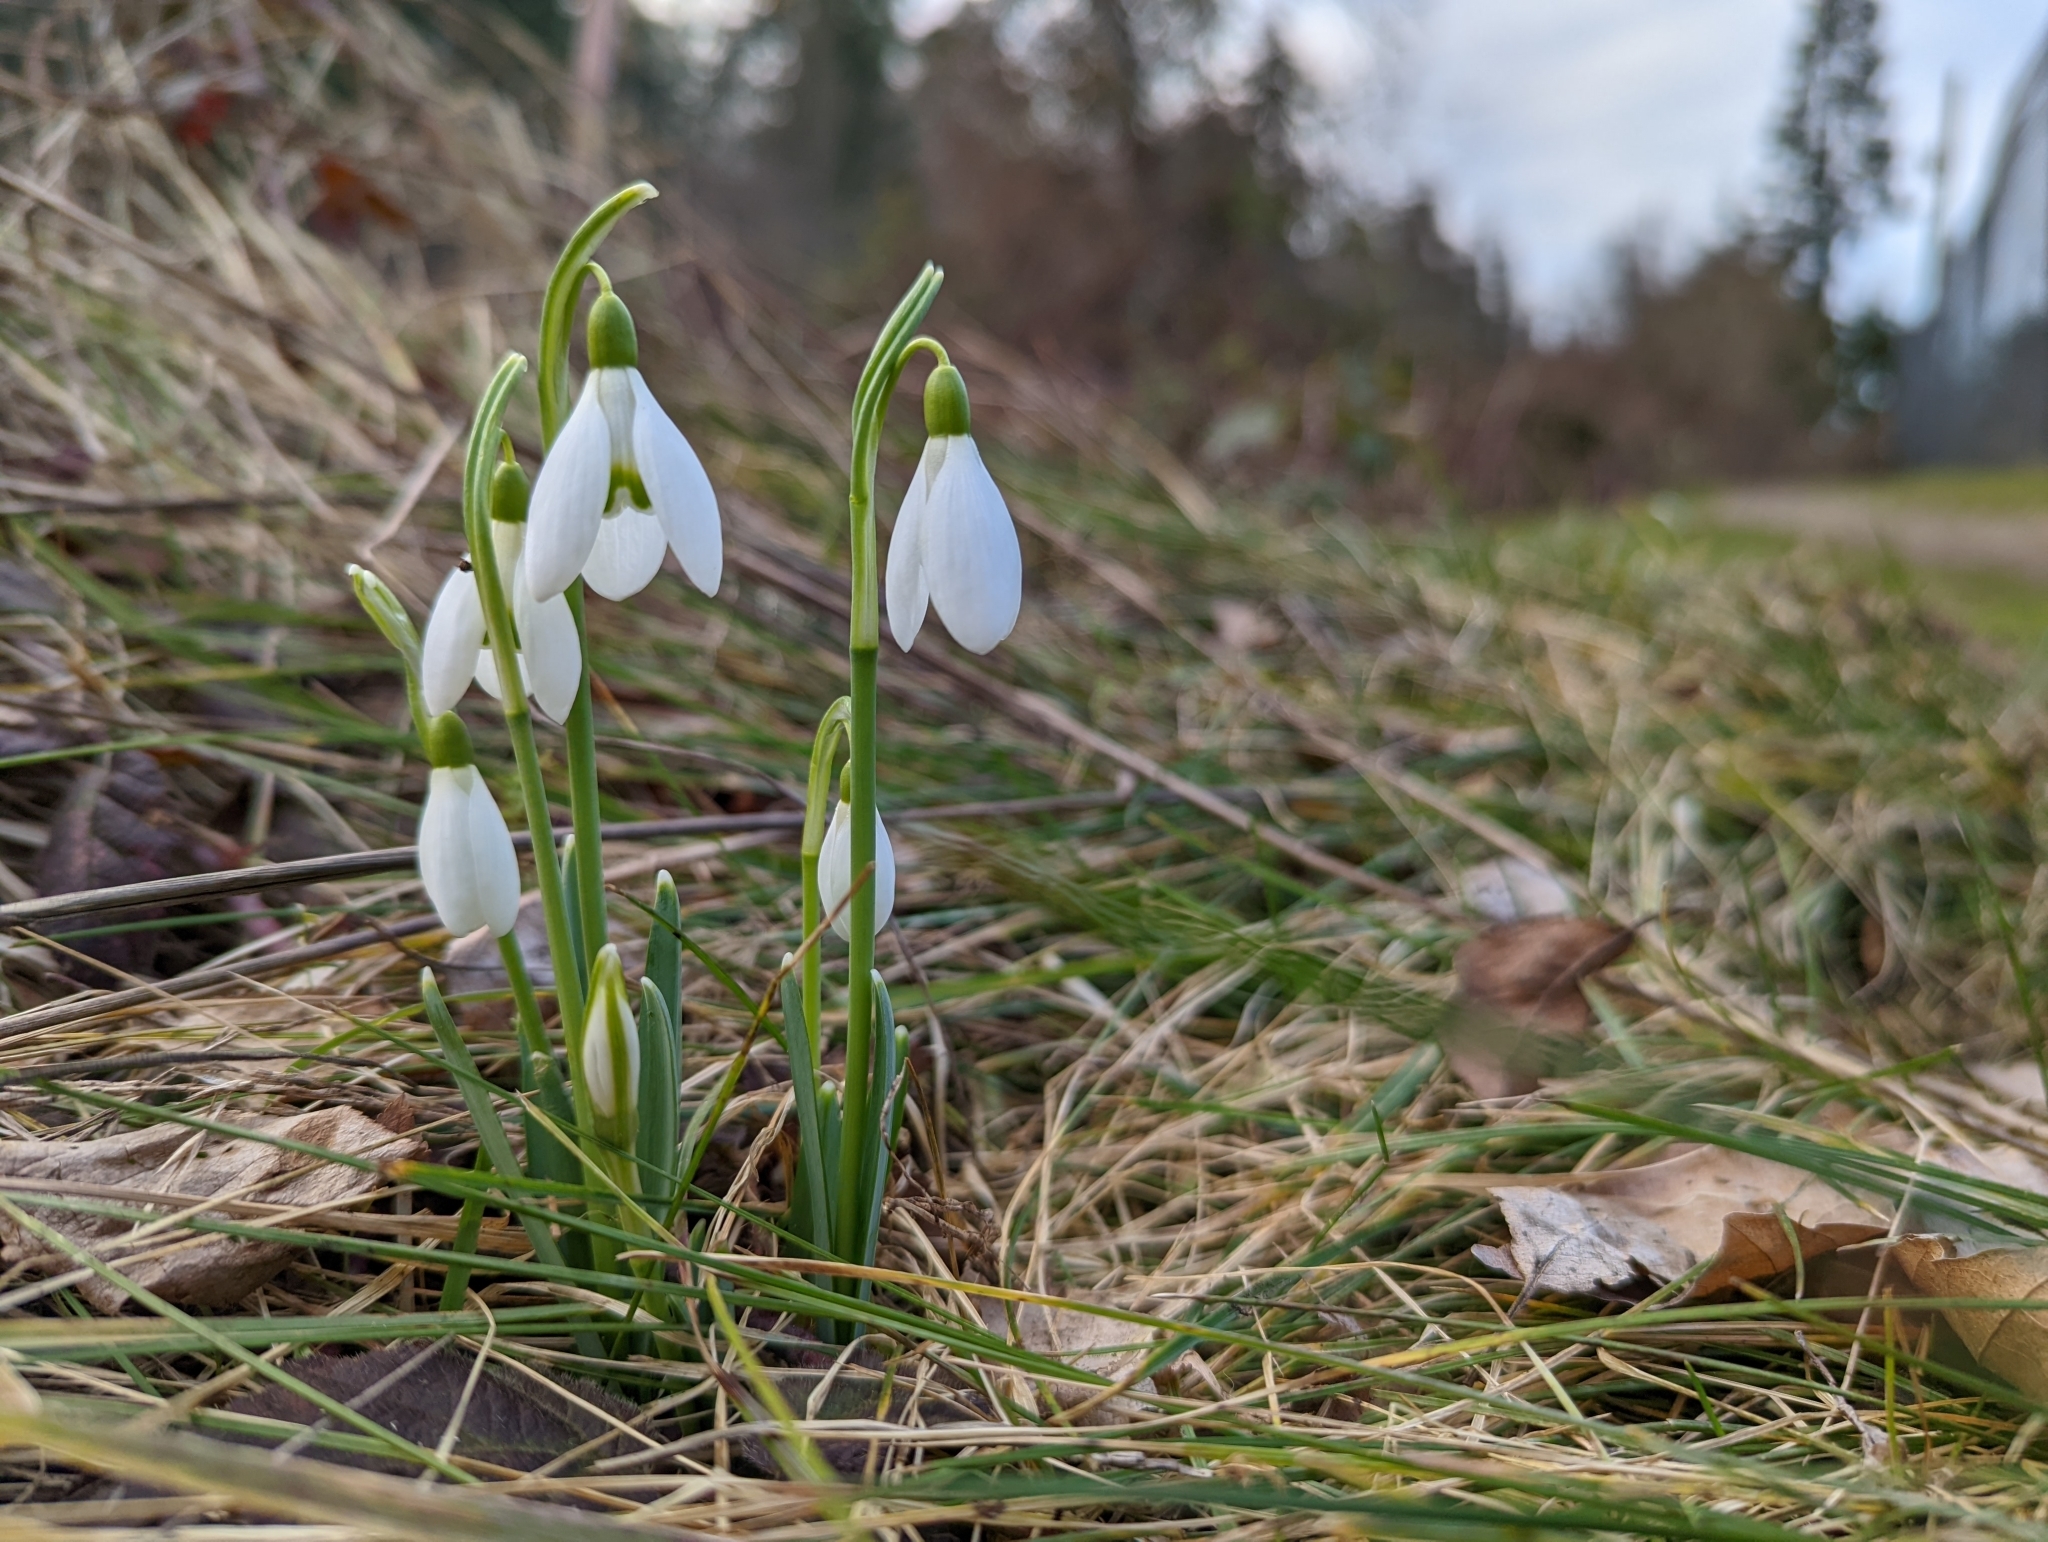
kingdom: Plantae
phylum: Tracheophyta
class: Liliopsida
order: Asparagales
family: Amaryllidaceae
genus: Galanthus
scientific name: Galanthus nivalis
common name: Snowdrop
